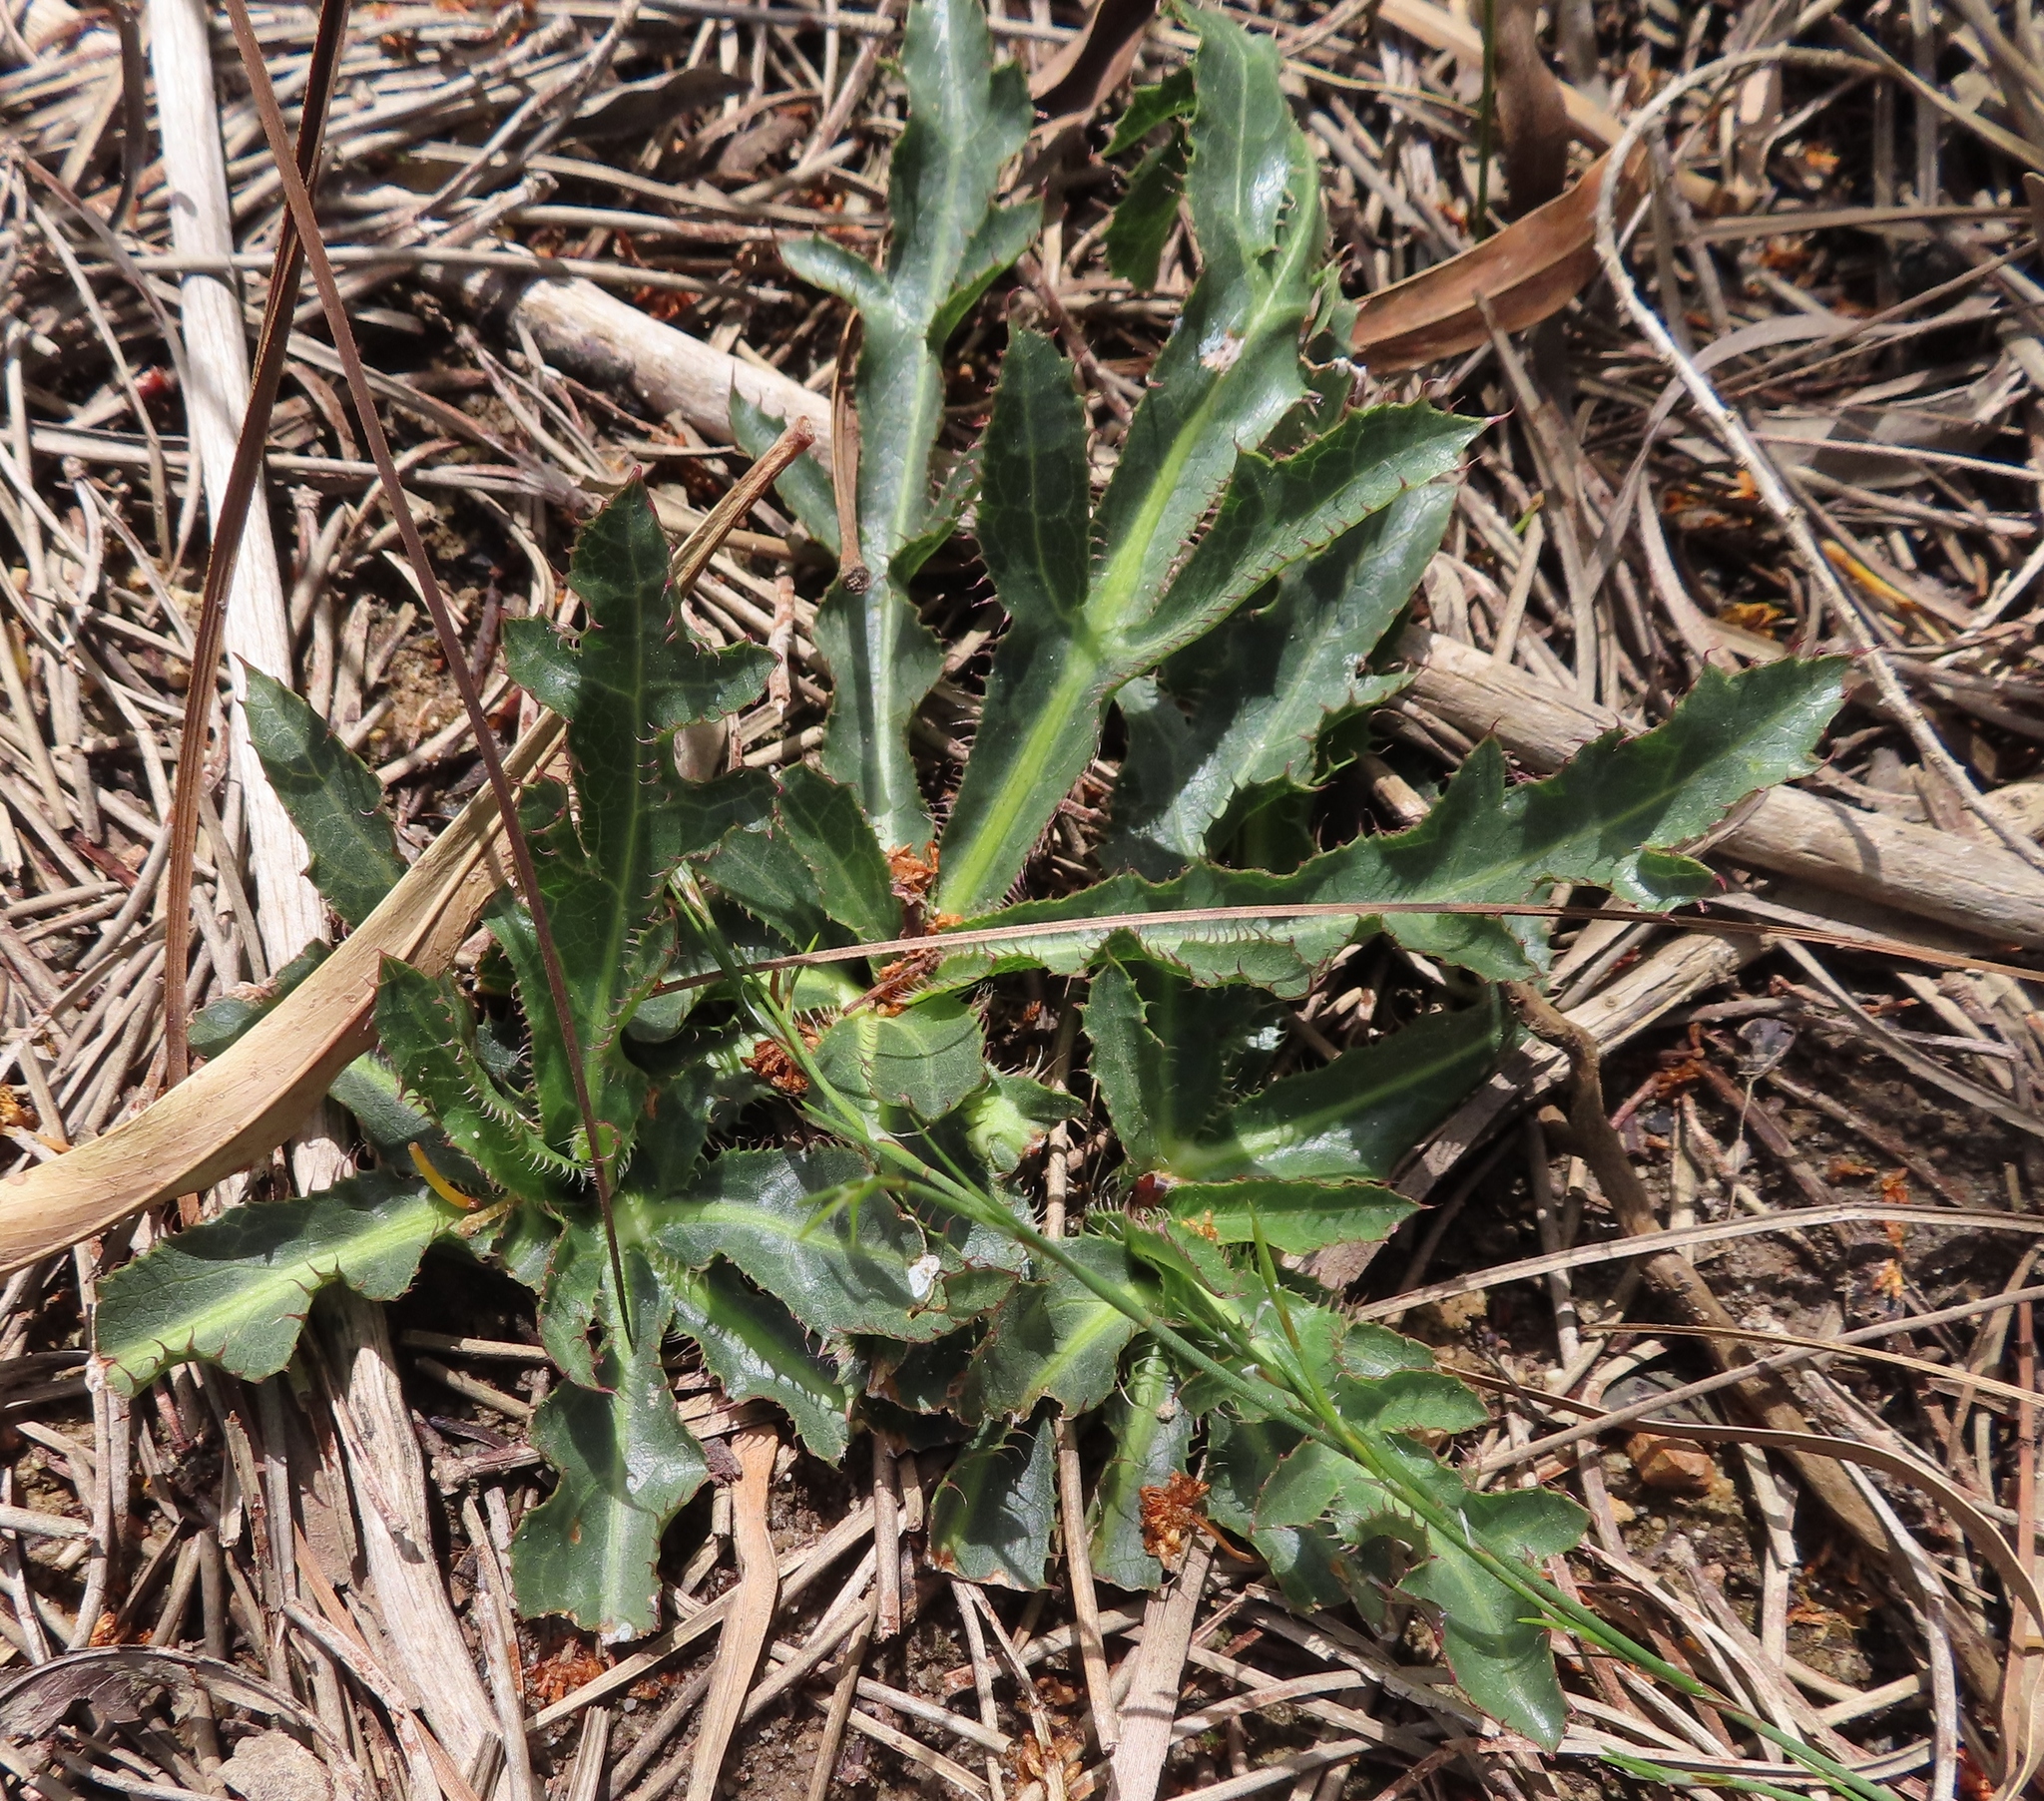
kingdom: Plantae
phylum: Tracheophyta
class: Magnoliopsida
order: Apiales
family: Apiaceae
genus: Lichtensteinia
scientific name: Lichtensteinia lacera
